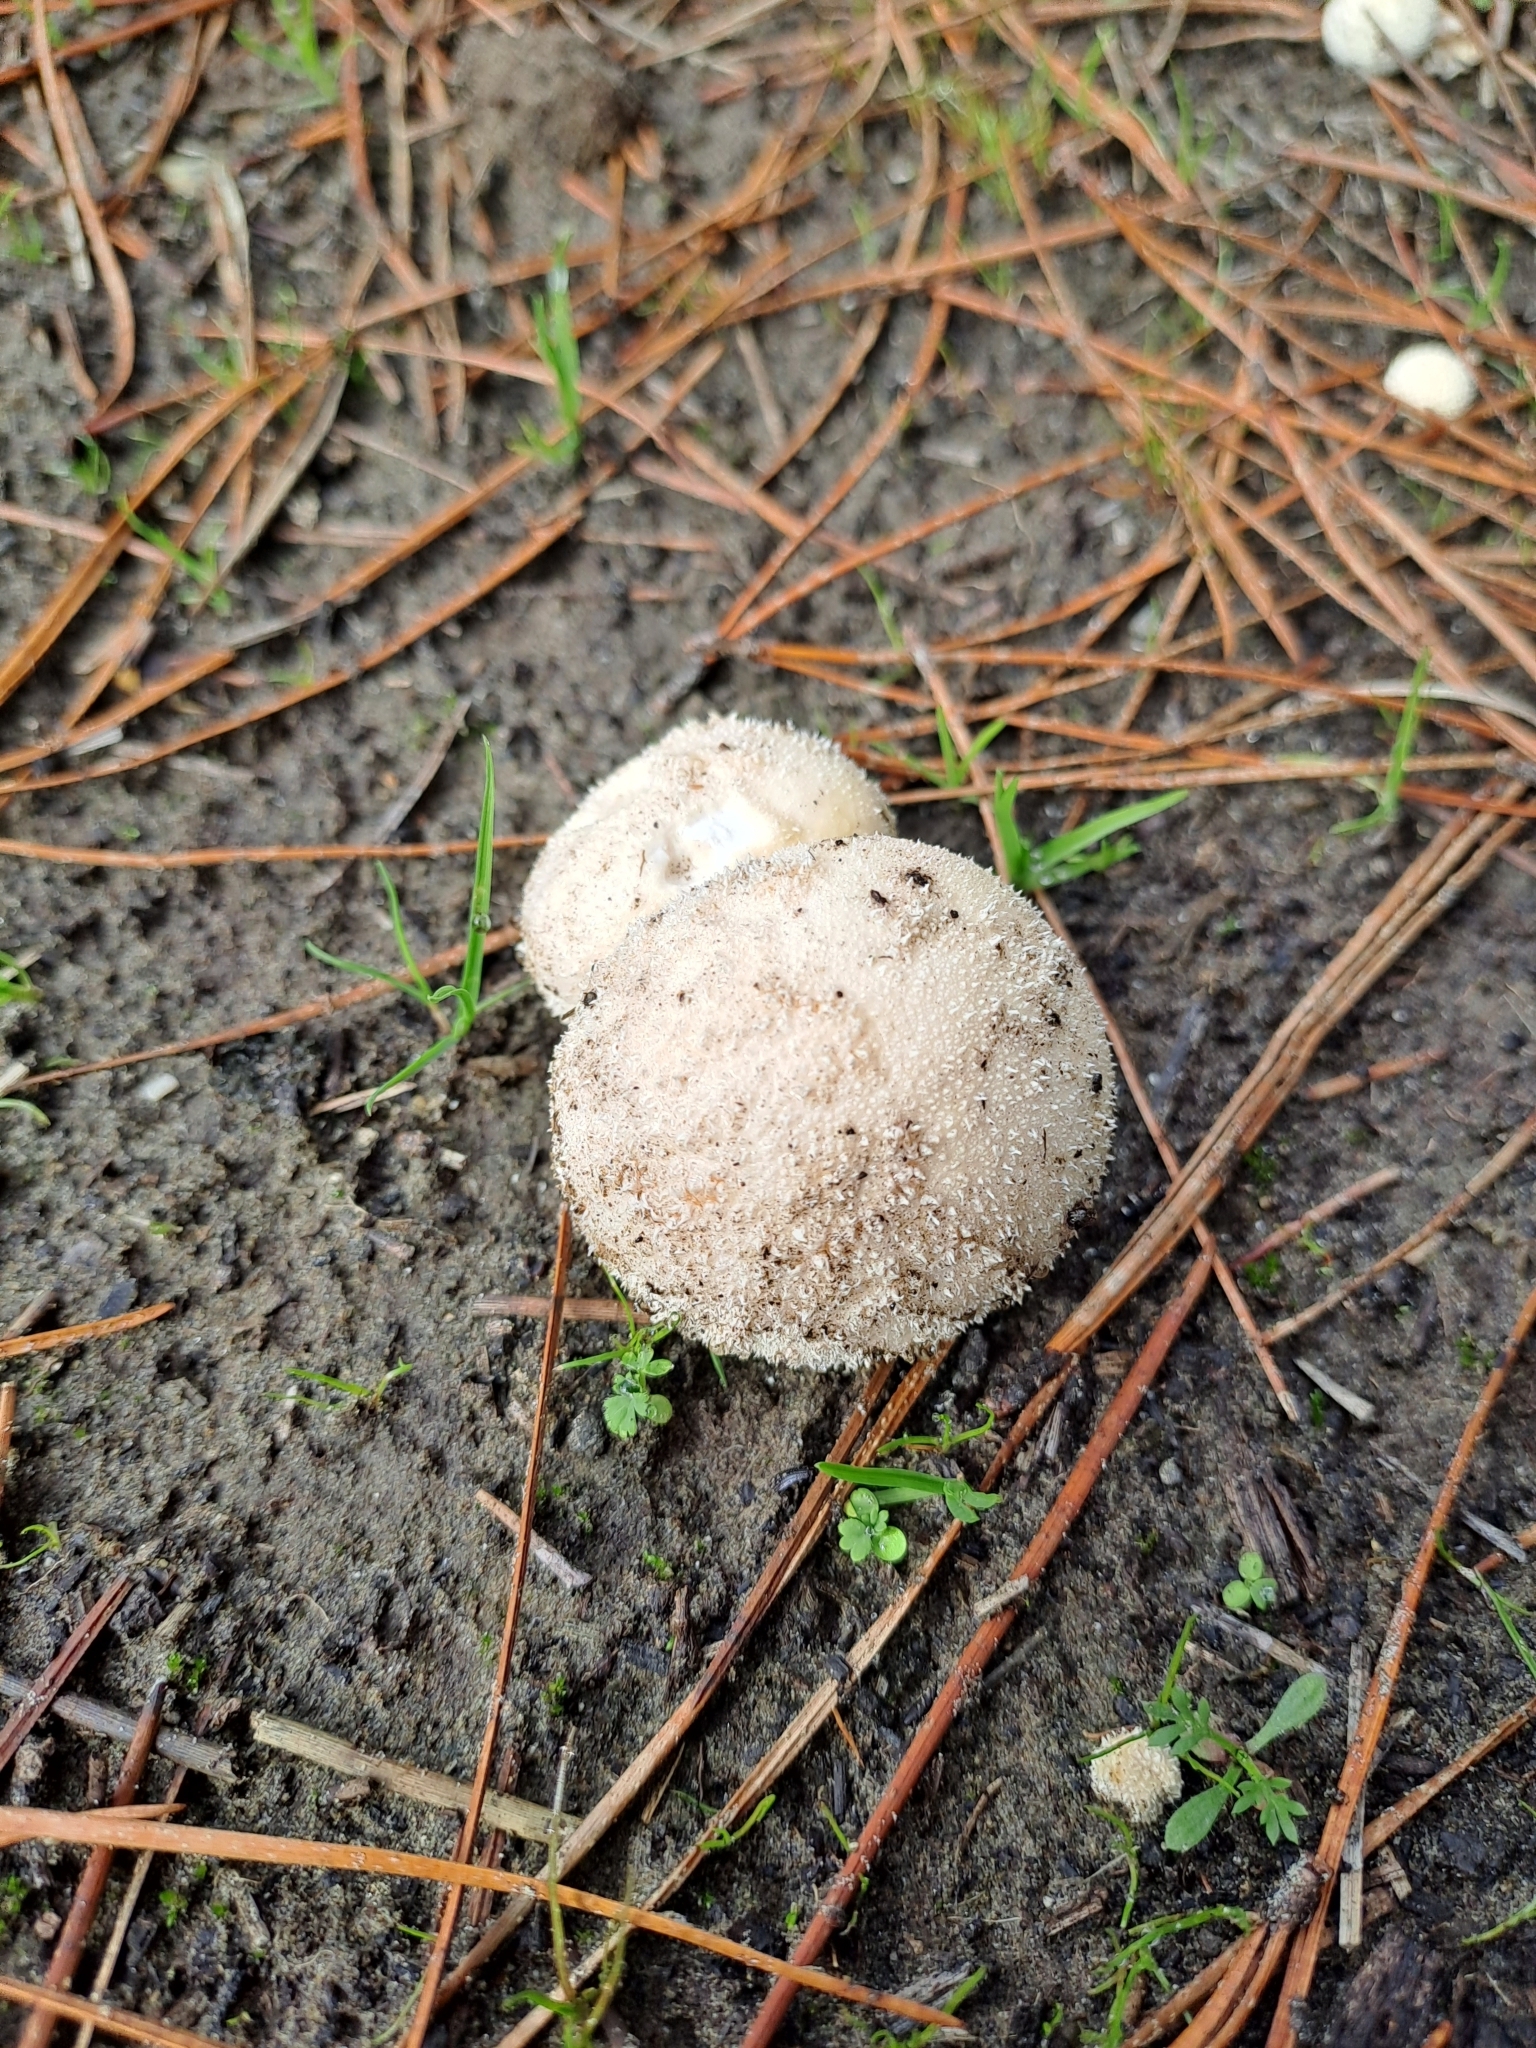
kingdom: Fungi
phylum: Basidiomycota
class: Agaricomycetes
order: Agaricales
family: Lycoperdaceae
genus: Lycoperdon
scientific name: Lycoperdon pratense
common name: Meadow puffball
